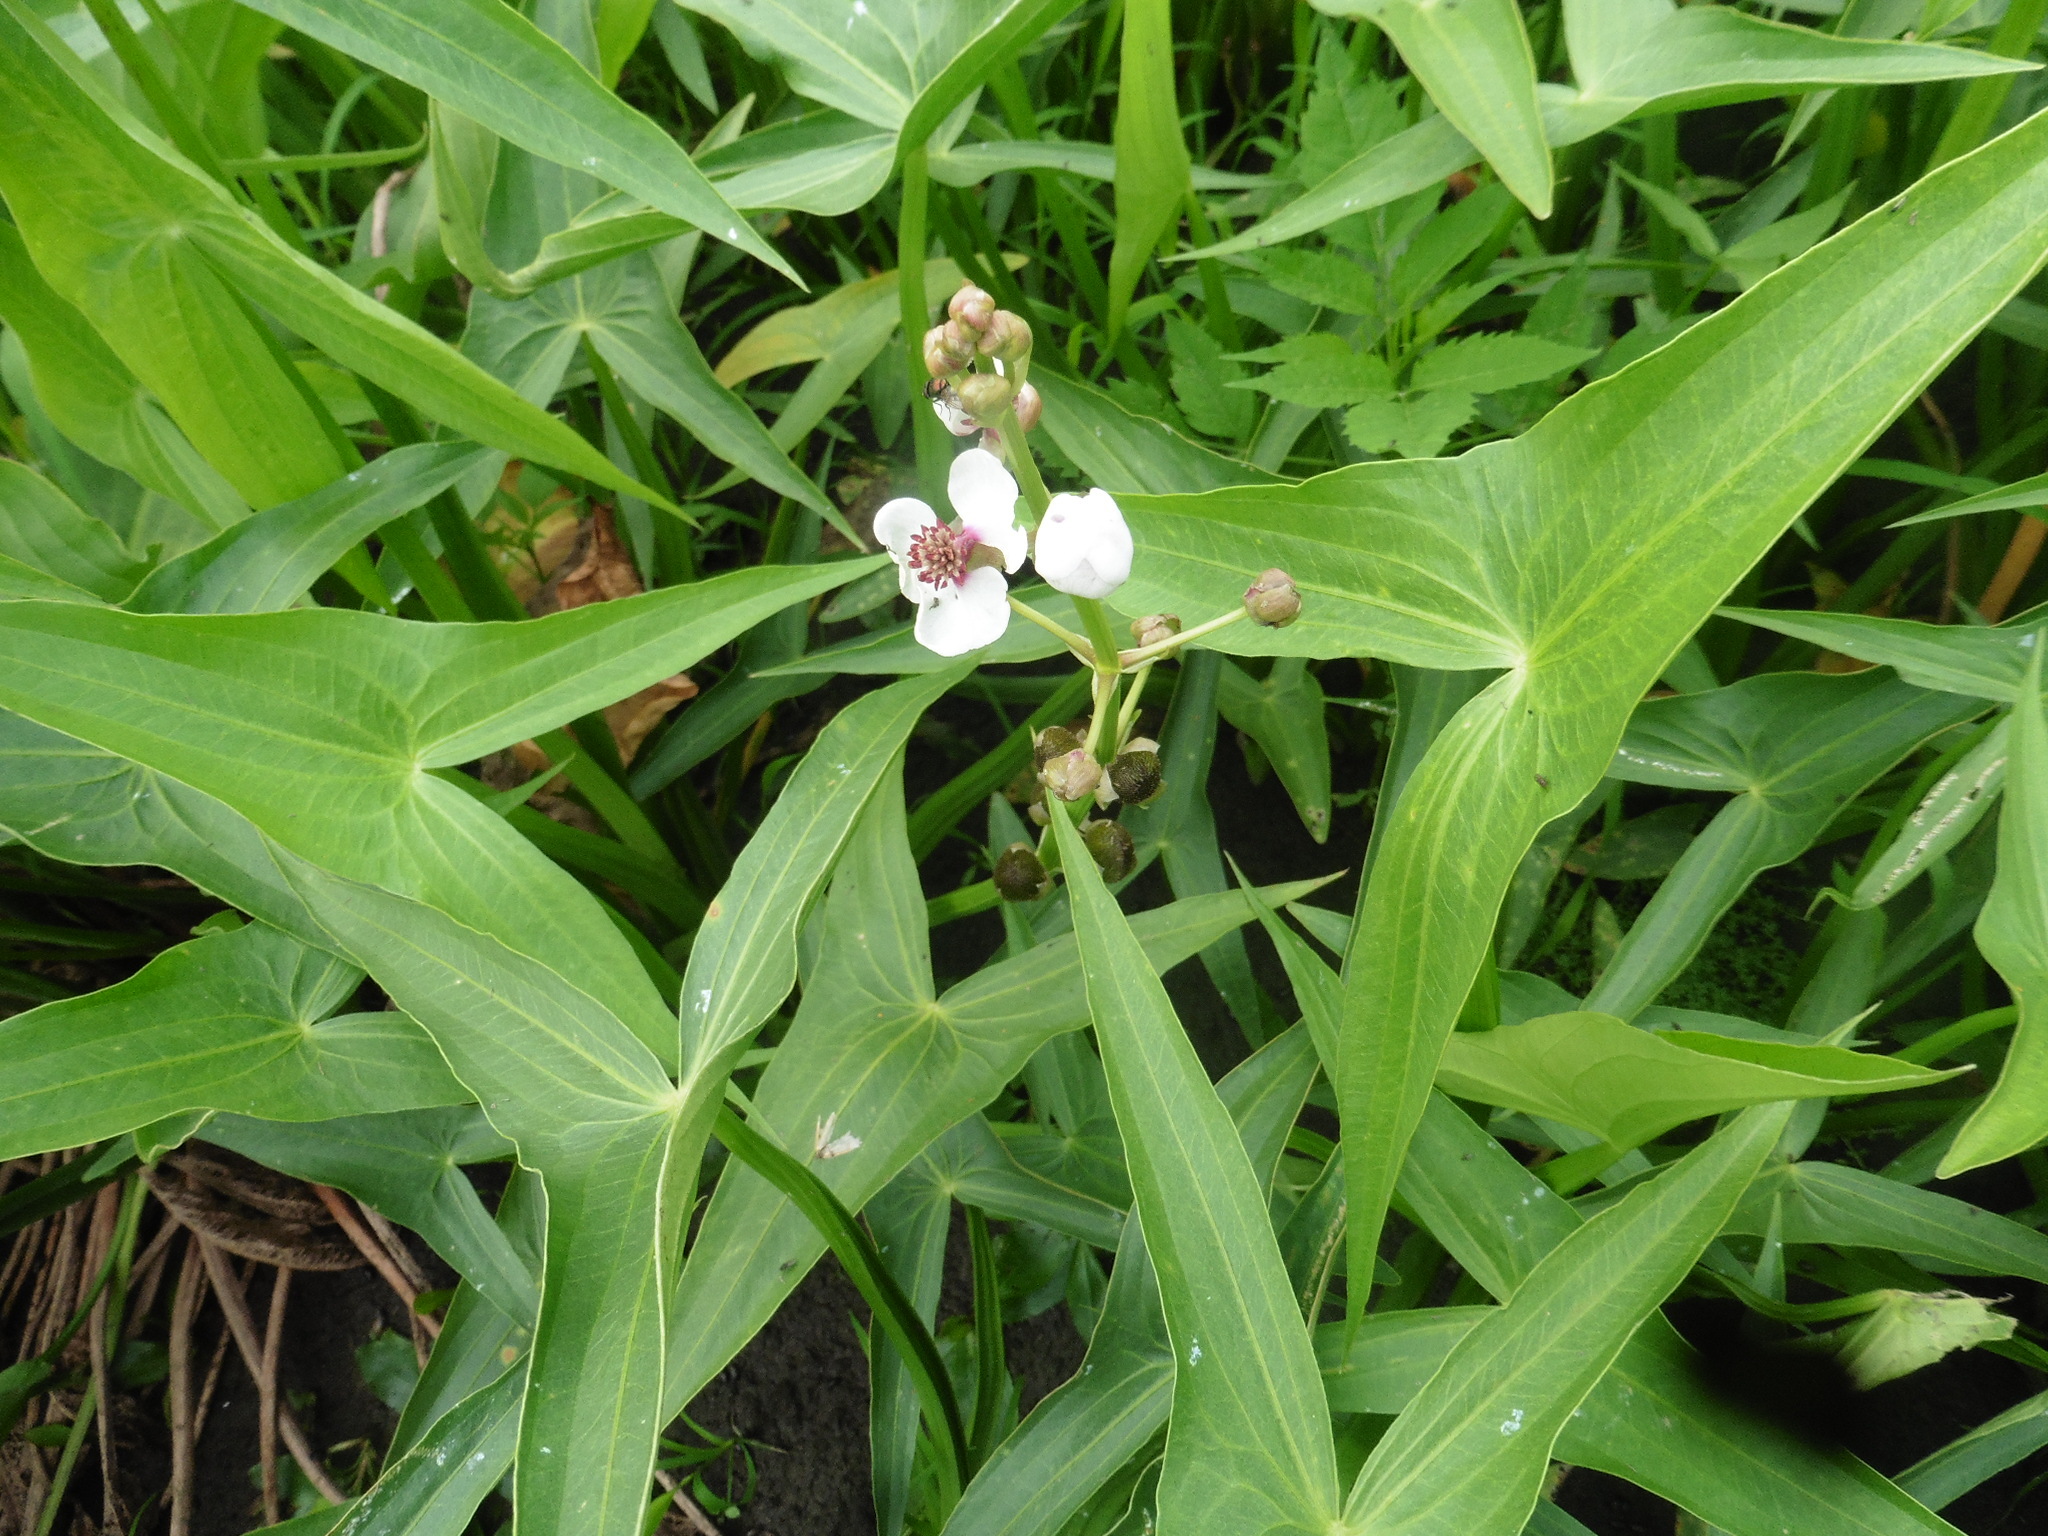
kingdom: Plantae
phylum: Tracheophyta
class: Liliopsida
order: Alismatales
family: Alismataceae
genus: Sagittaria
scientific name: Sagittaria sagittifolia
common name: Arrowhead
